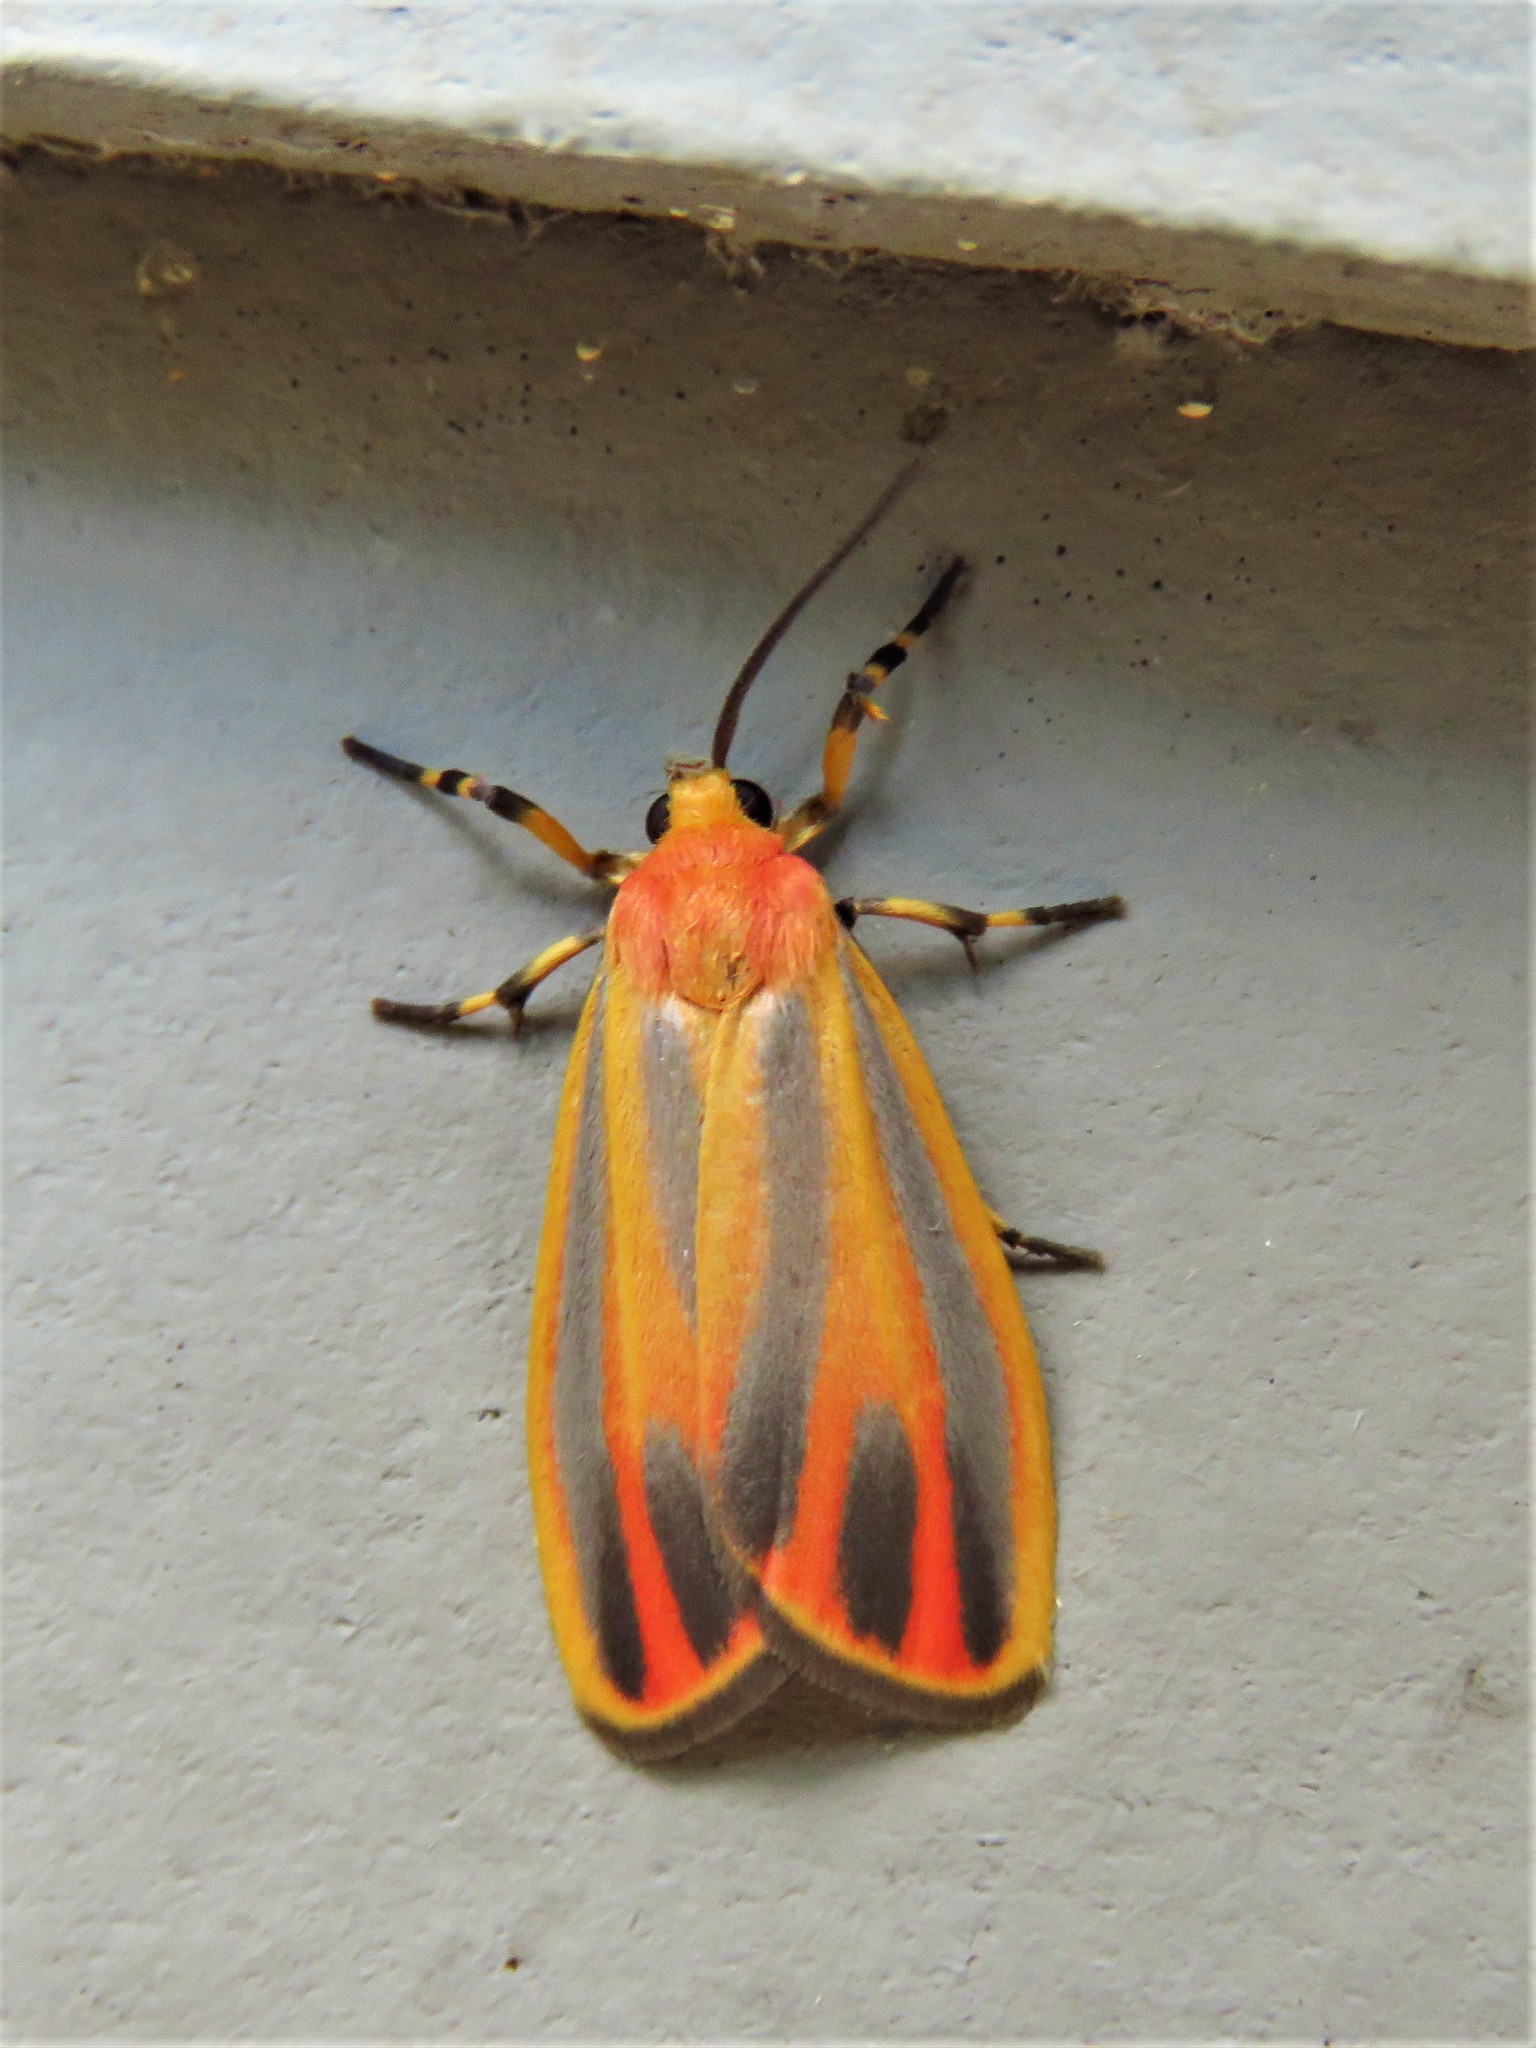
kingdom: Animalia
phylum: Arthropoda
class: Insecta
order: Lepidoptera
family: Erebidae
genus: Hypoprepia
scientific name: Hypoprepia fucosa
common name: Painted lichen moth
